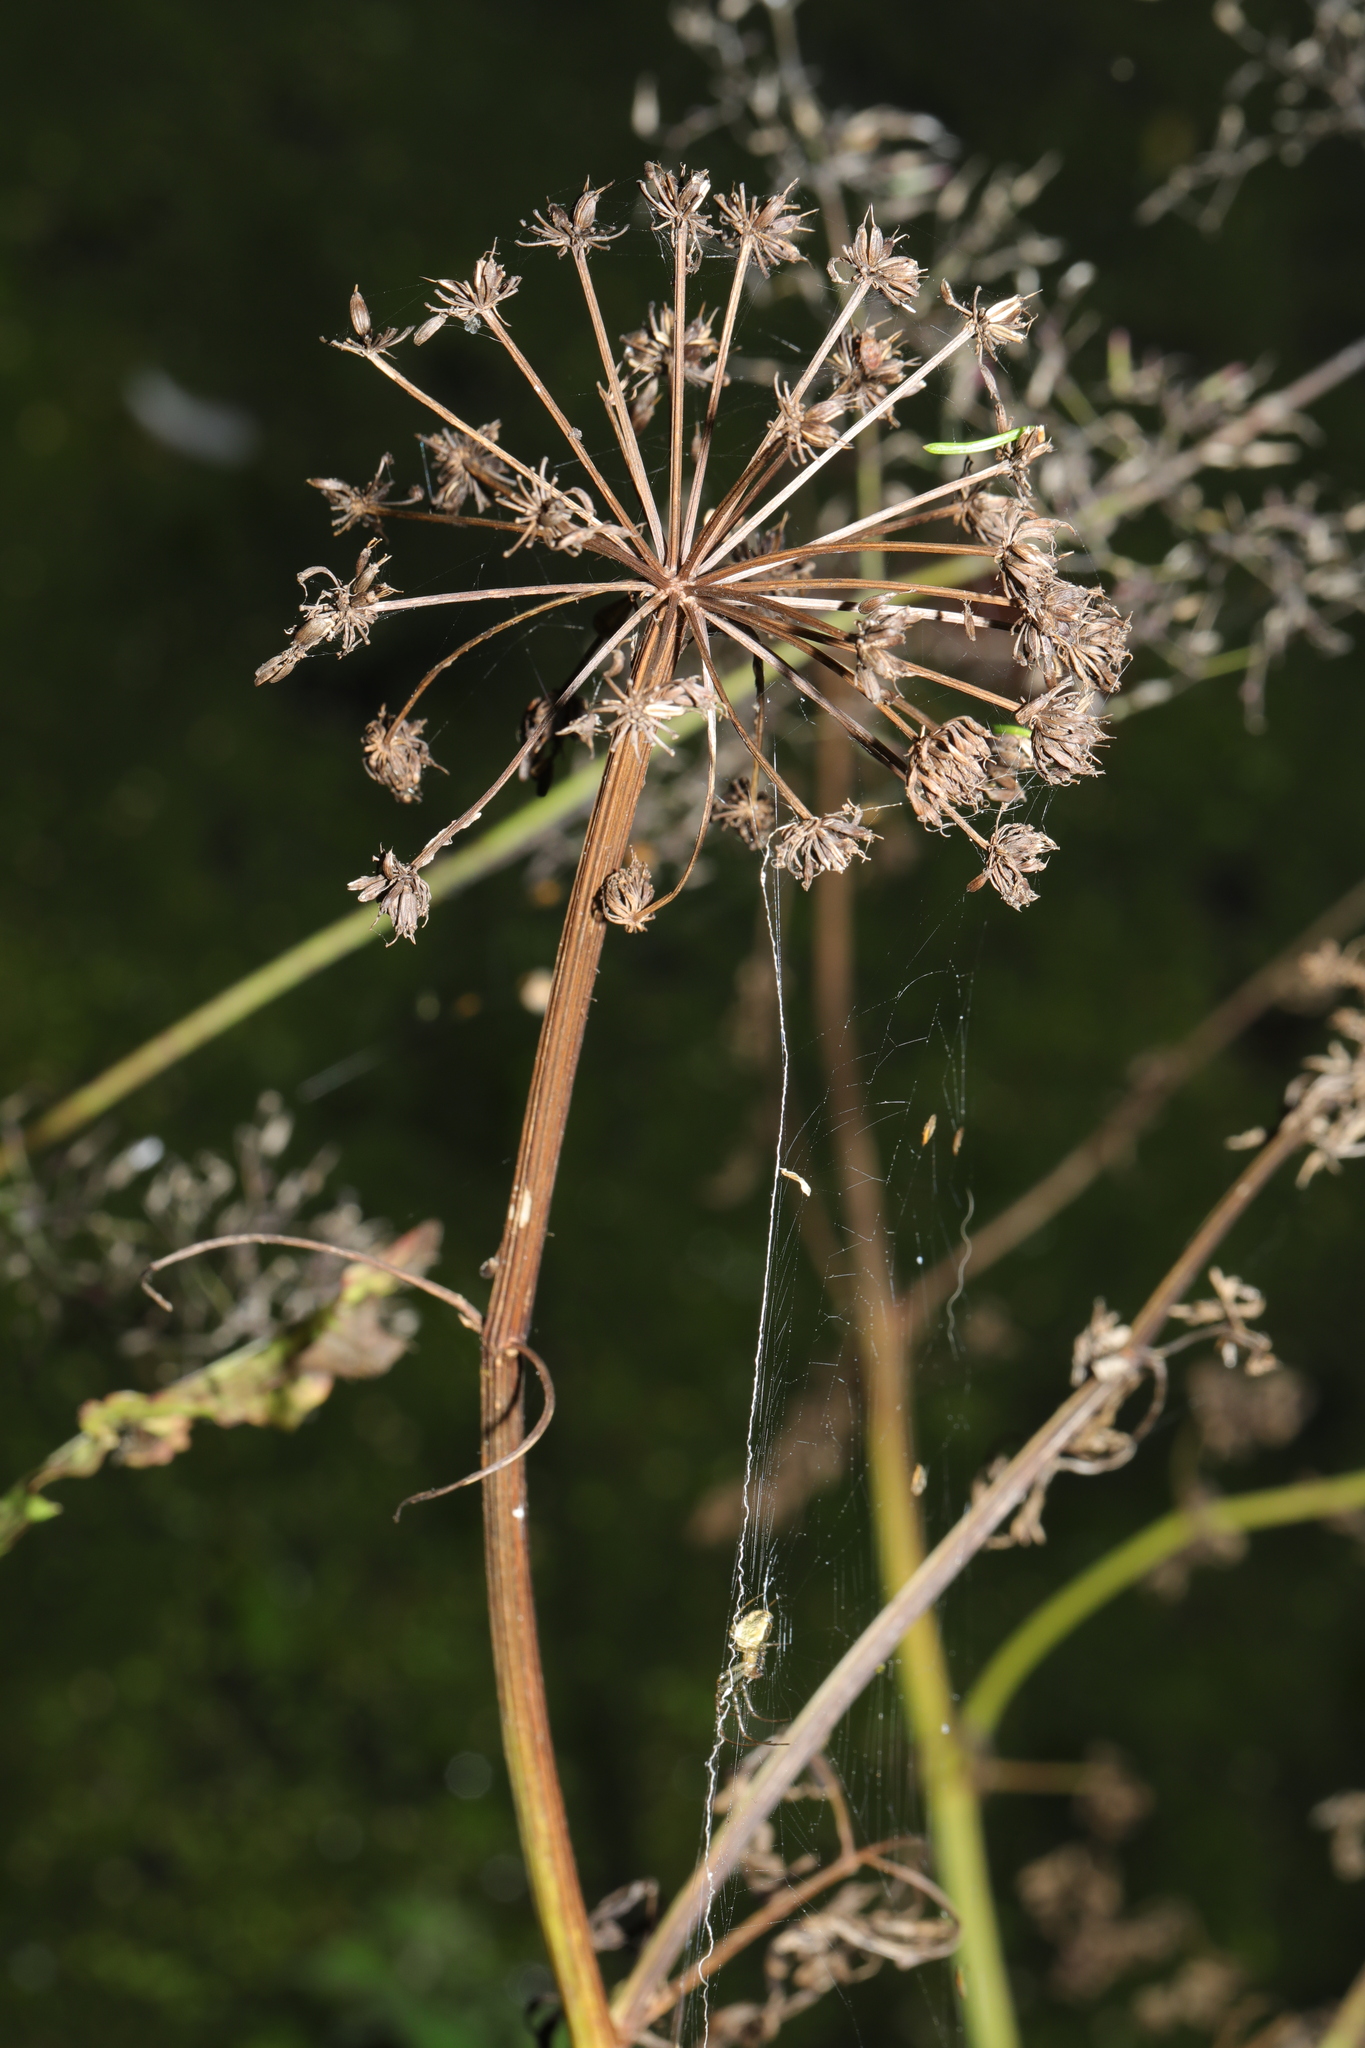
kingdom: Plantae
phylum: Tracheophyta
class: Magnoliopsida
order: Apiales
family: Apiaceae
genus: Angelica
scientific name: Angelica sylvestris
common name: Wild angelica
